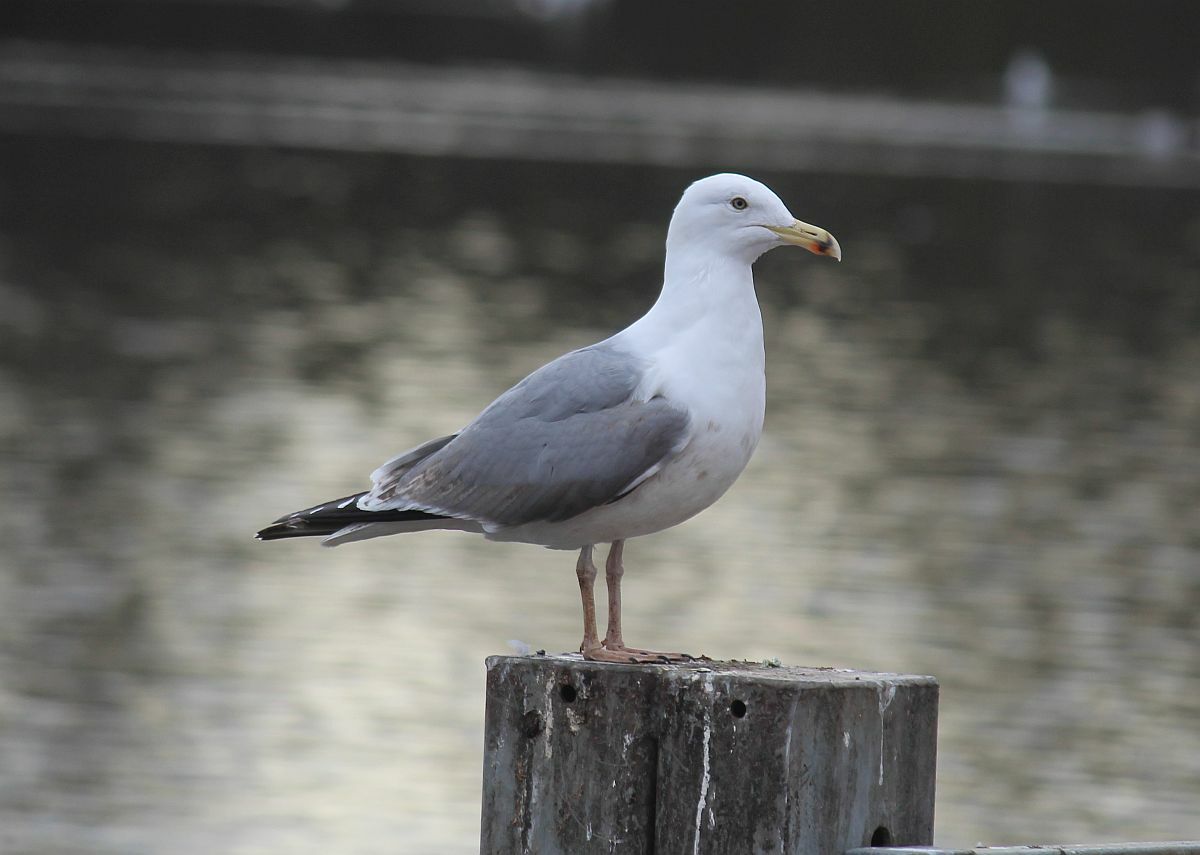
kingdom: Animalia
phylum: Chordata
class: Aves
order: Charadriiformes
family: Laridae
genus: Larus
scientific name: Larus argentatus
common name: Herring gull
